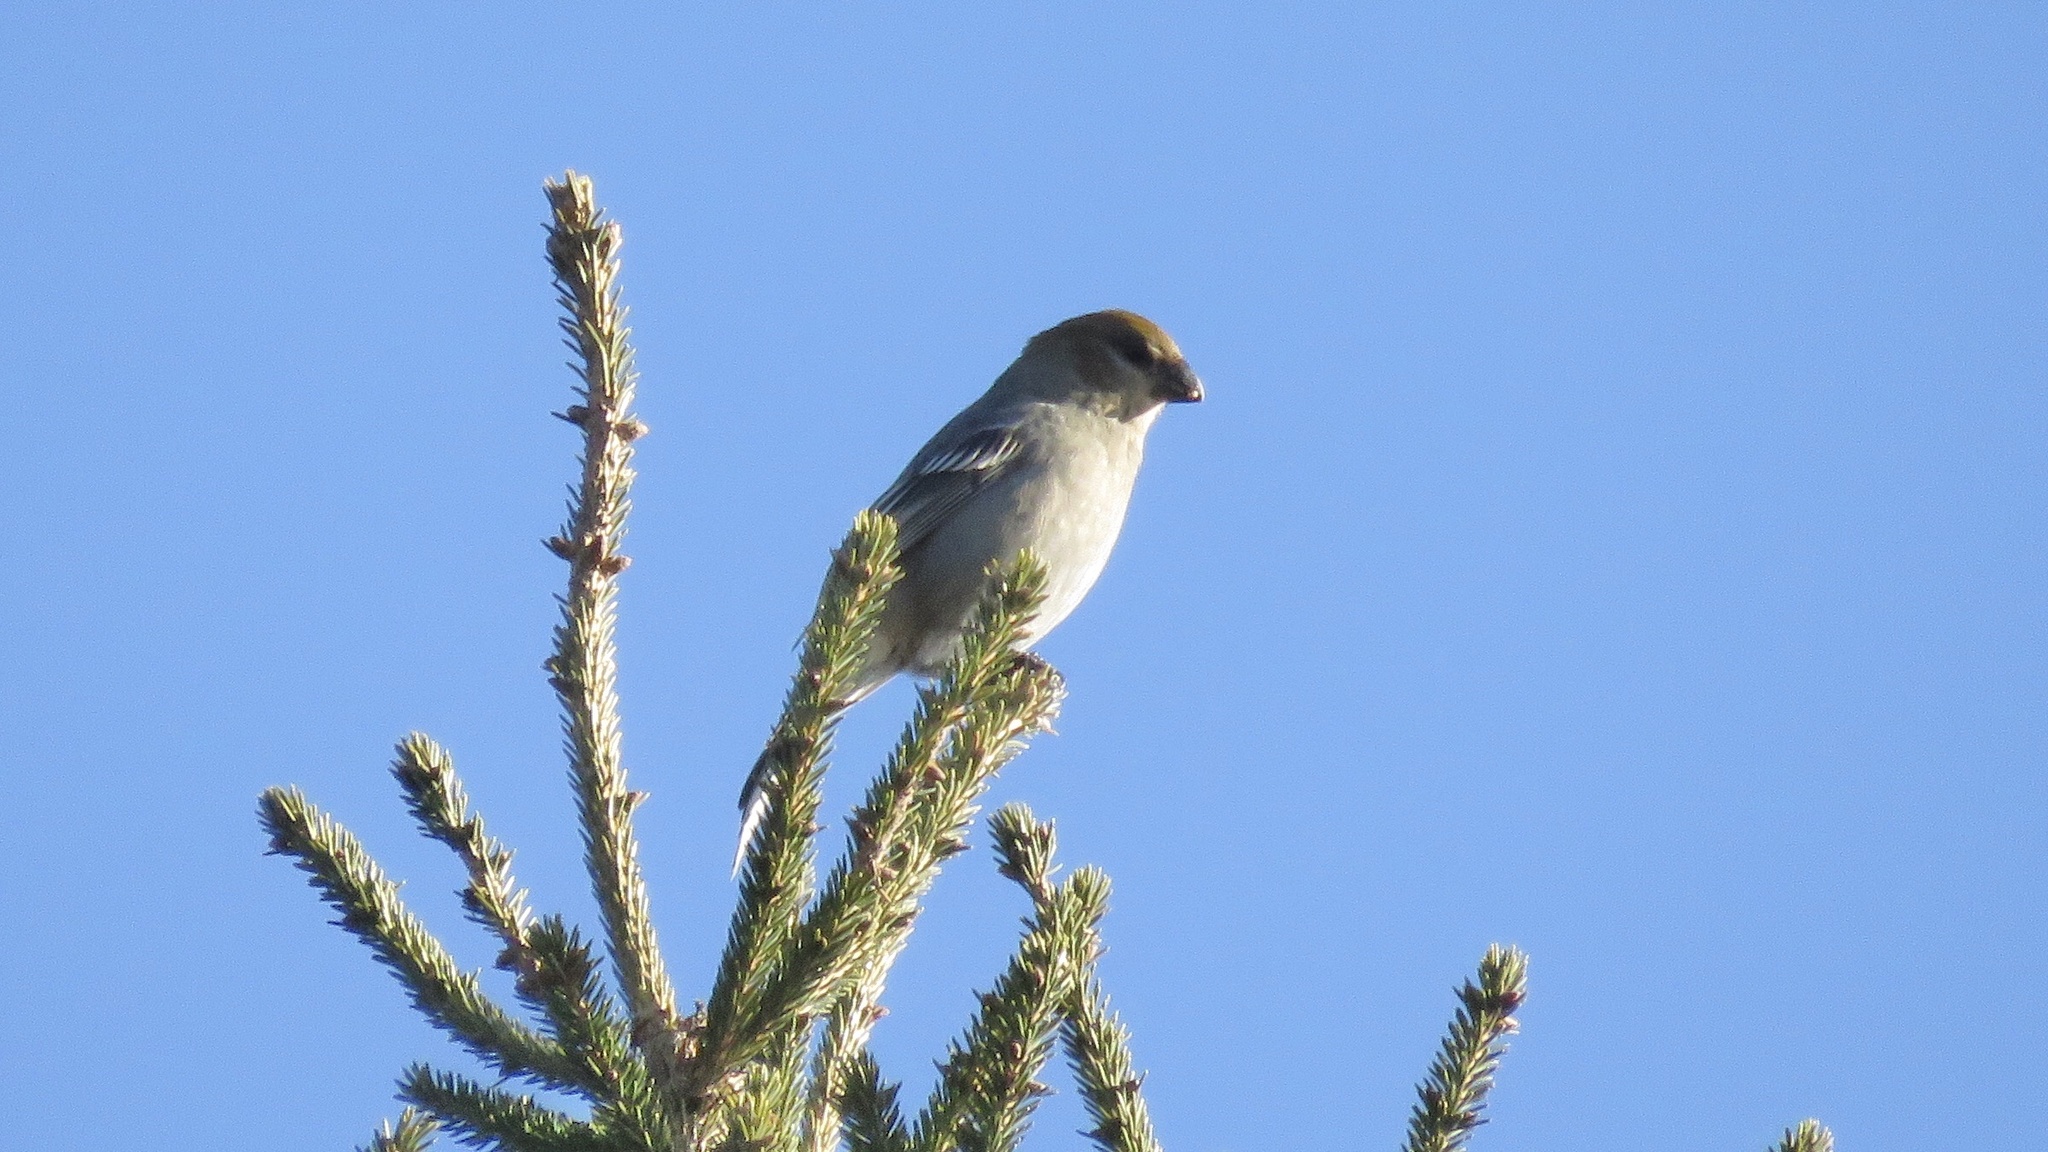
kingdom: Animalia
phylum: Chordata
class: Aves
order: Passeriformes
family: Fringillidae
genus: Pinicola
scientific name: Pinicola enucleator
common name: Pine grosbeak
